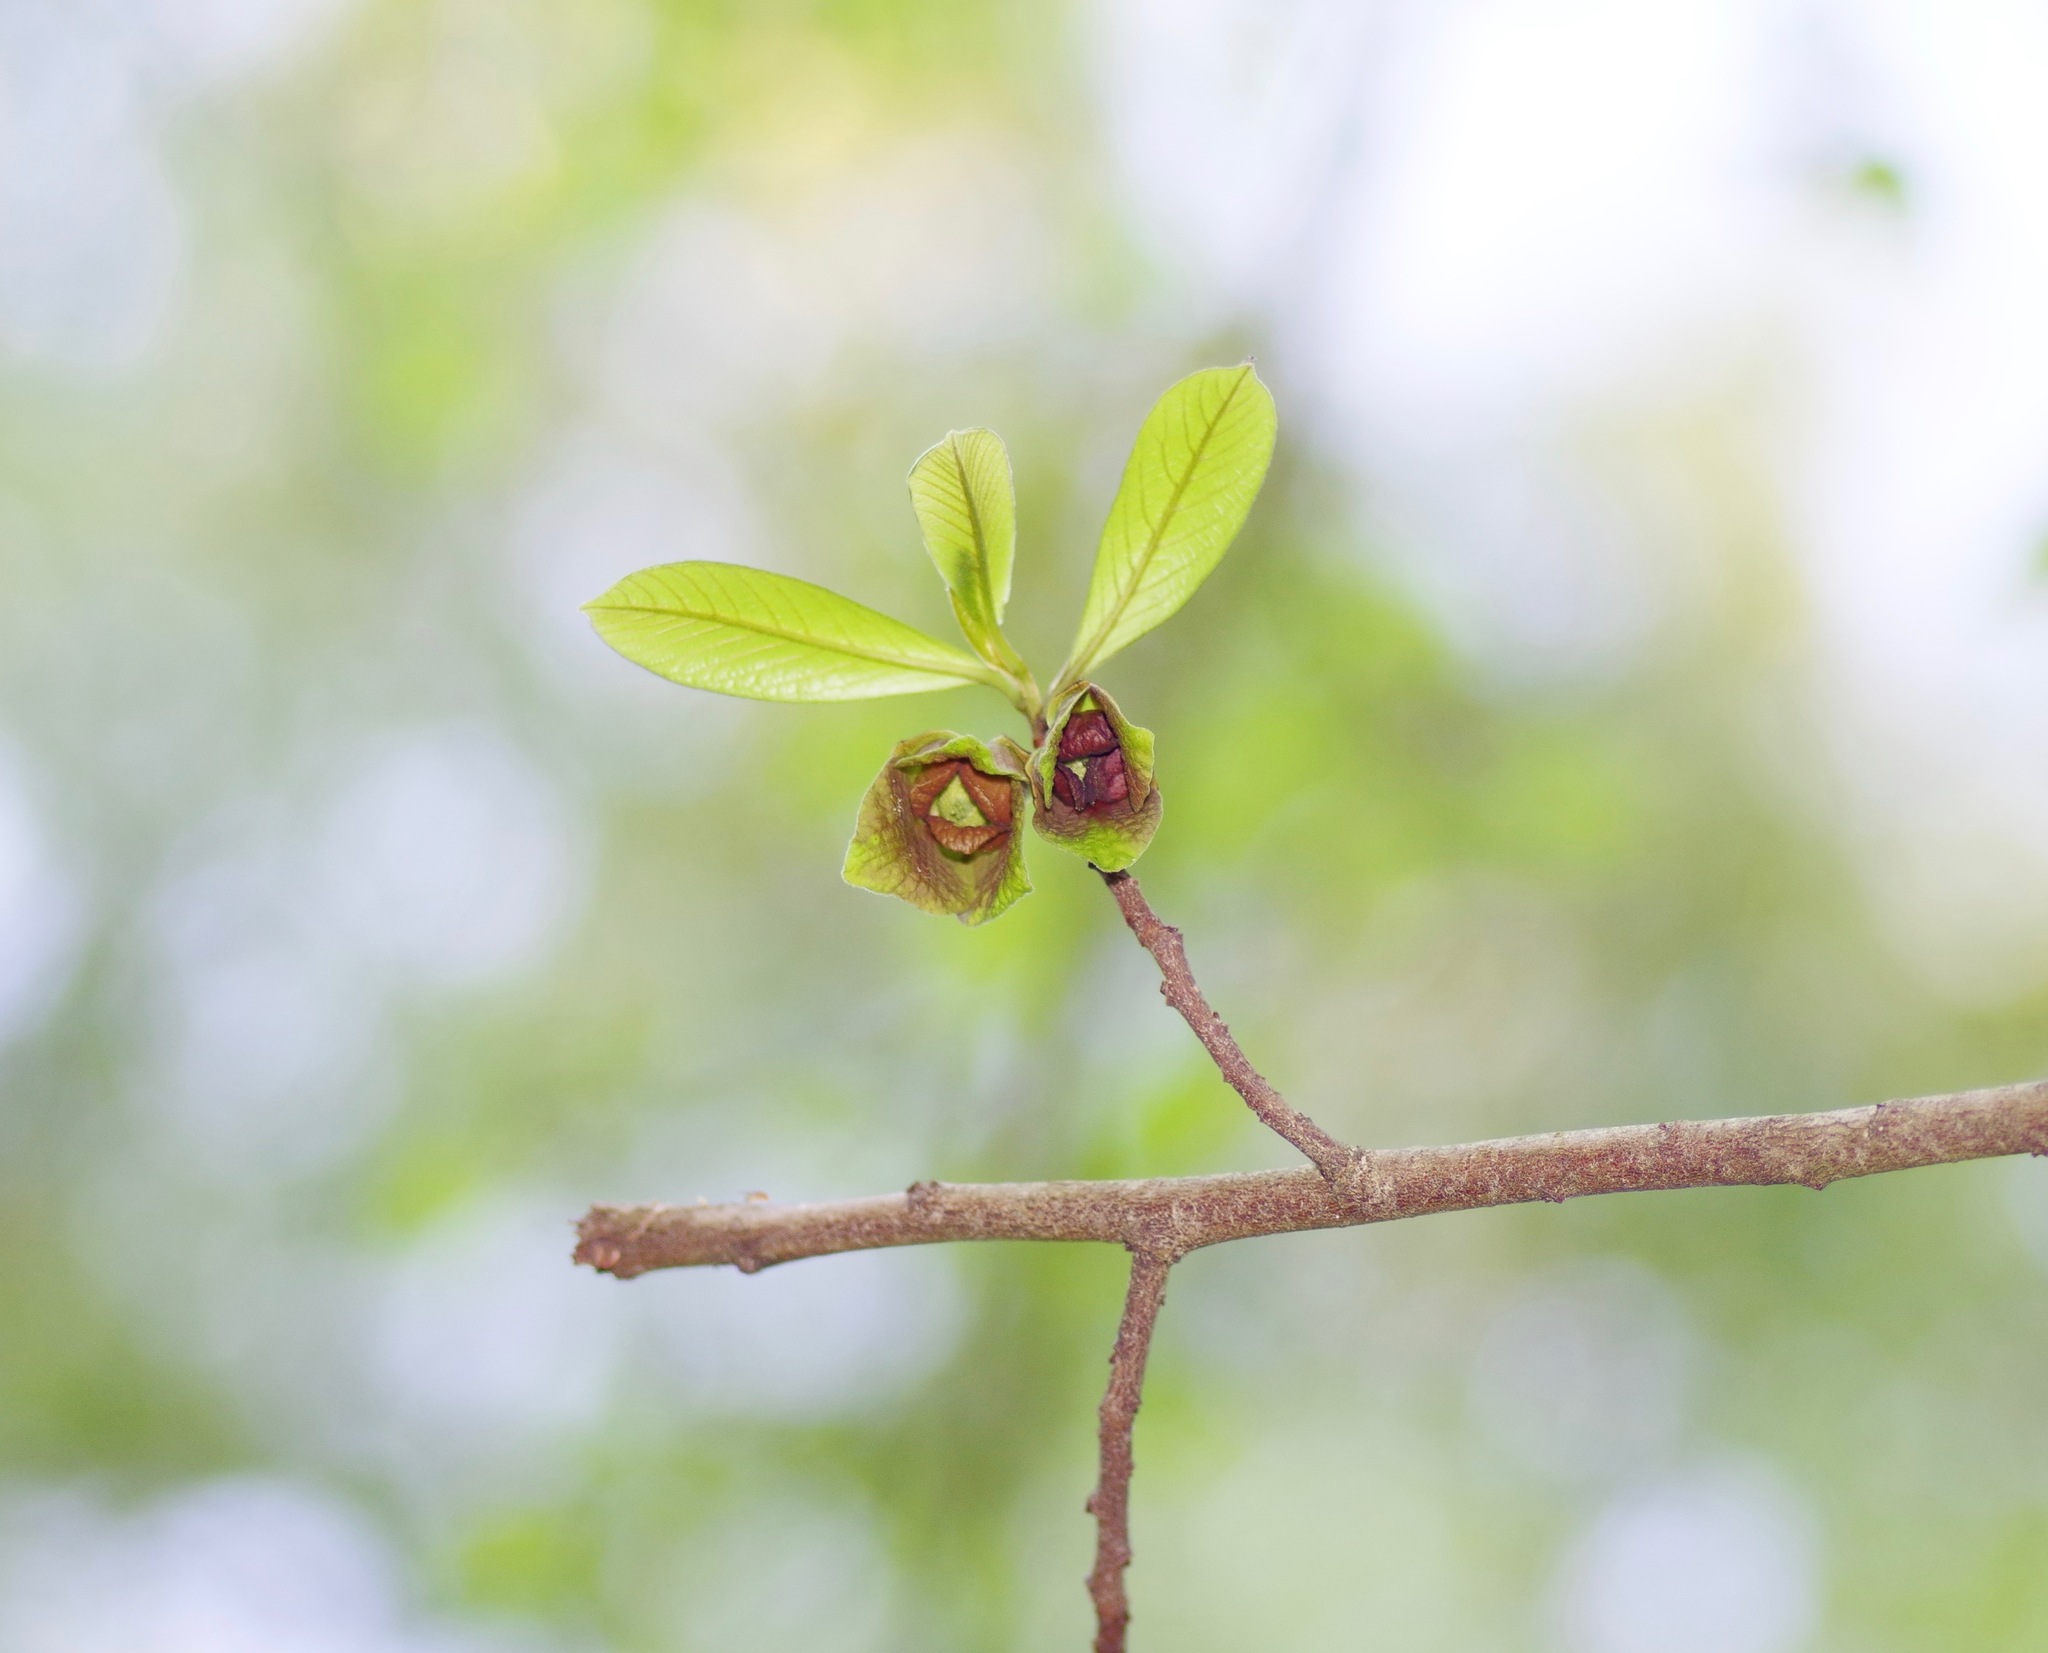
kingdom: Plantae
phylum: Tracheophyta
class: Magnoliopsida
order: Magnoliales
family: Annonaceae
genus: Asimina
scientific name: Asimina triloba
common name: Dog-banana
